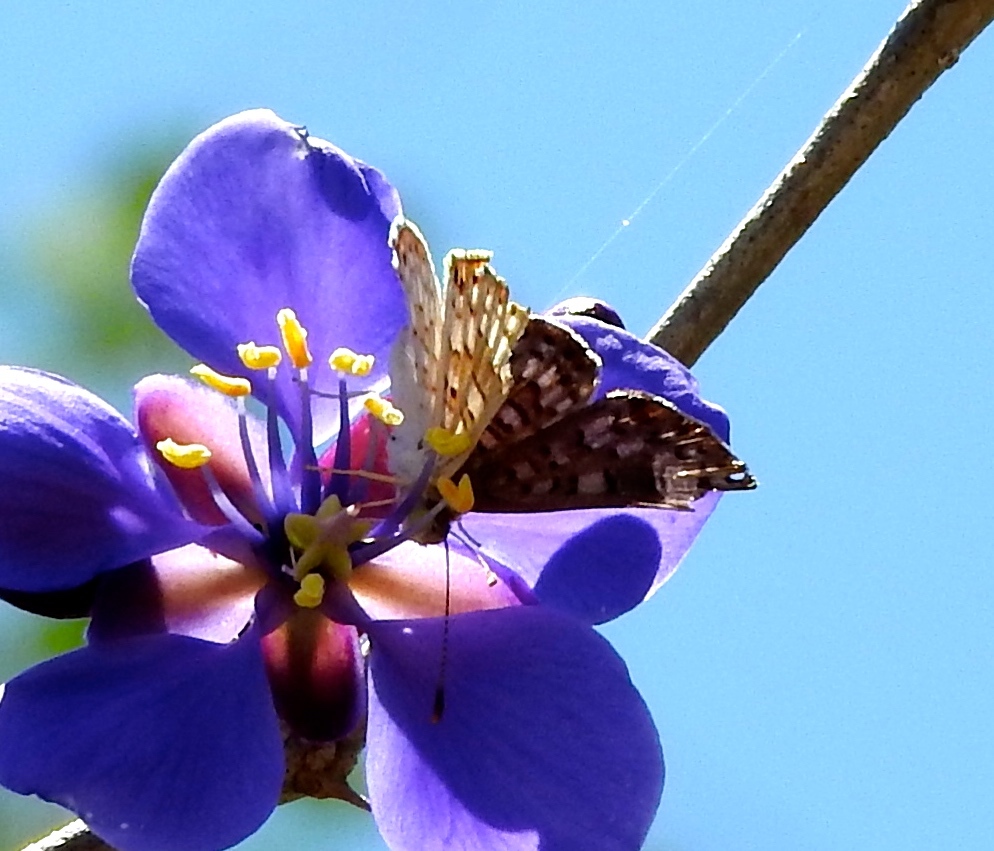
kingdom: Animalia
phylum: Arthropoda
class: Insecta
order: Hymenoptera
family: Braconidae
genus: Apodesmia
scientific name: Apodesmia
